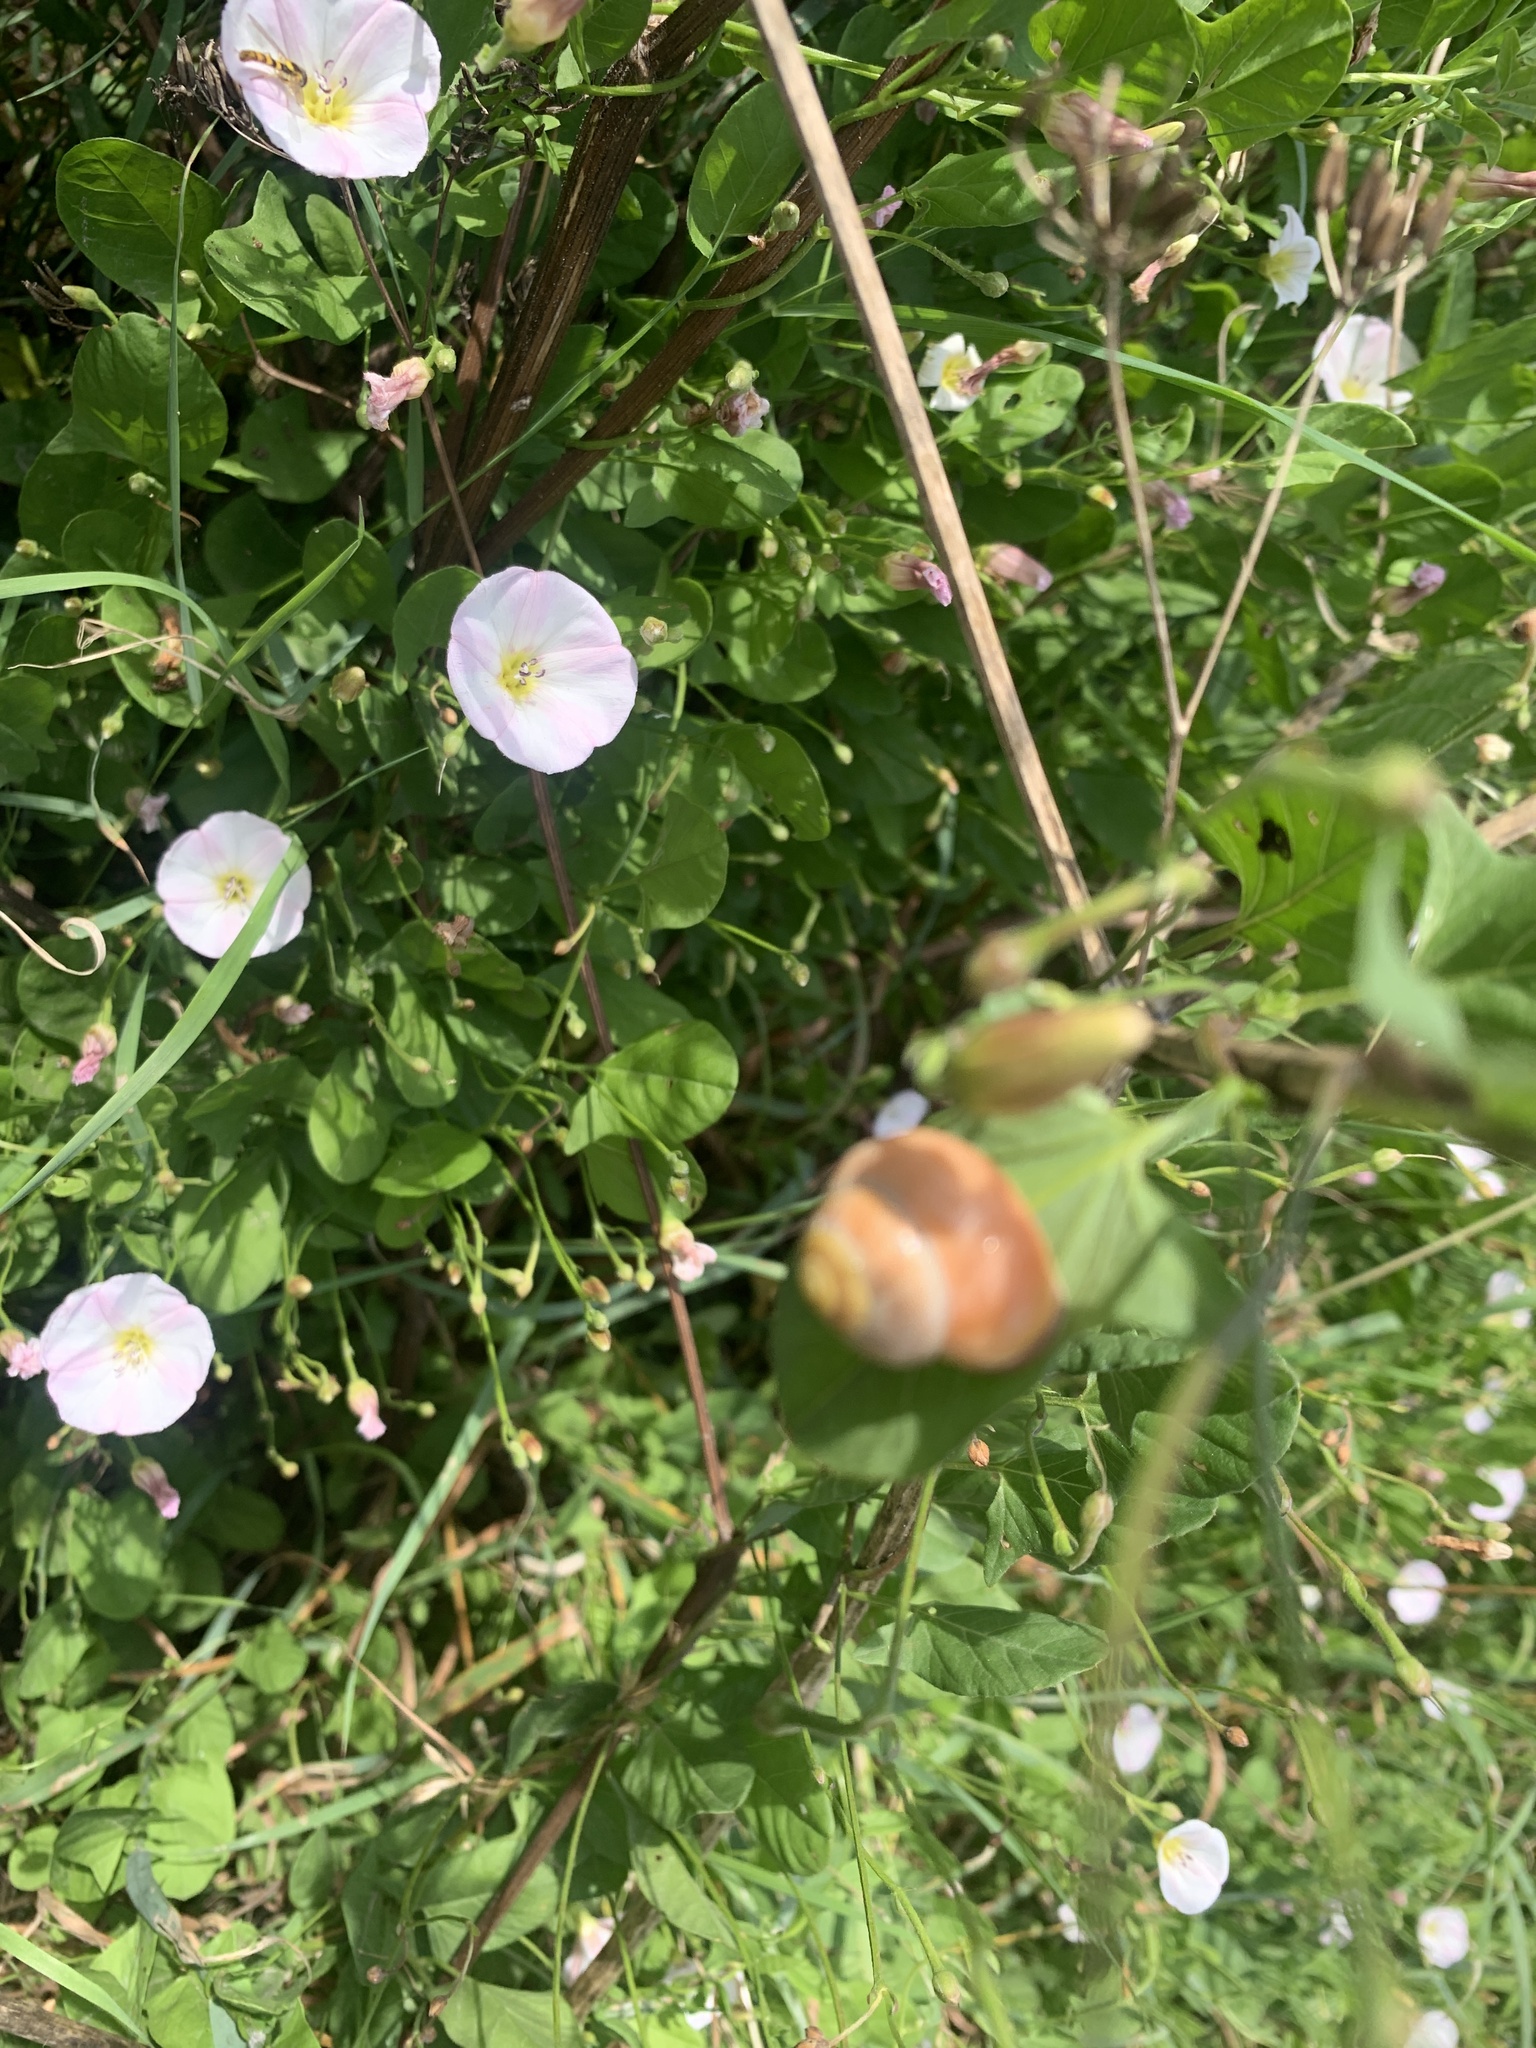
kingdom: Plantae
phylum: Tracheophyta
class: Magnoliopsida
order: Solanales
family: Convolvulaceae
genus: Convolvulus
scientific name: Convolvulus arvensis
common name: Field bindweed
